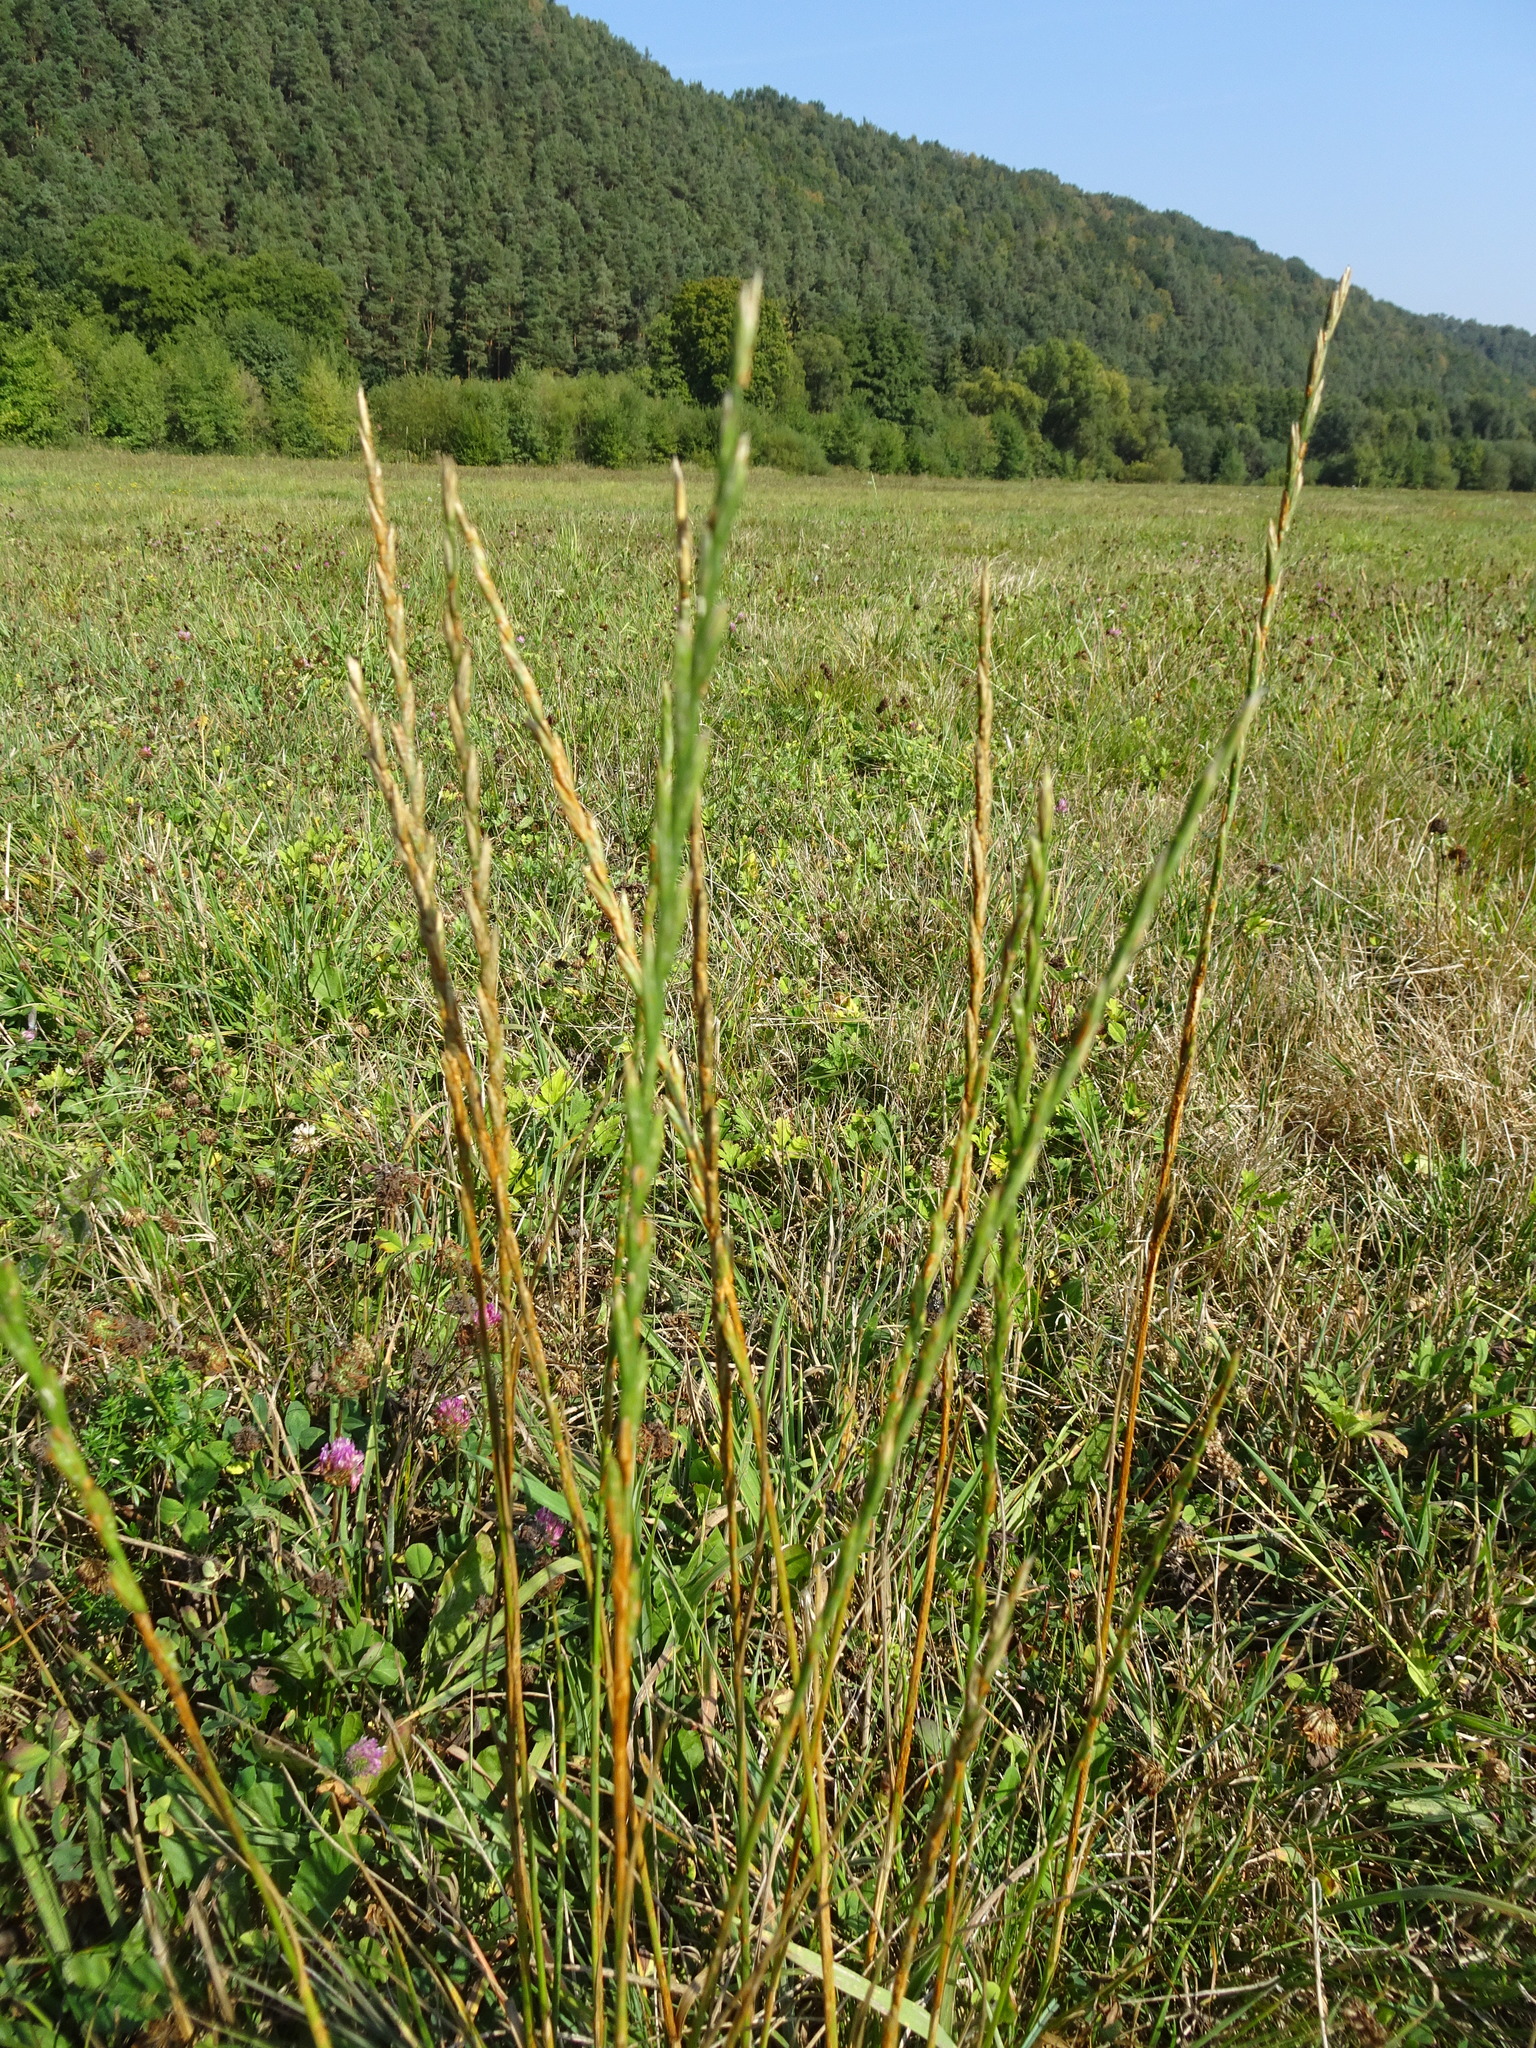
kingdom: Plantae
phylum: Tracheophyta
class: Liliopsida
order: Poales
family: Poaceae
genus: Lolium
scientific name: Lolium perenne
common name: Perennial ryegrass
